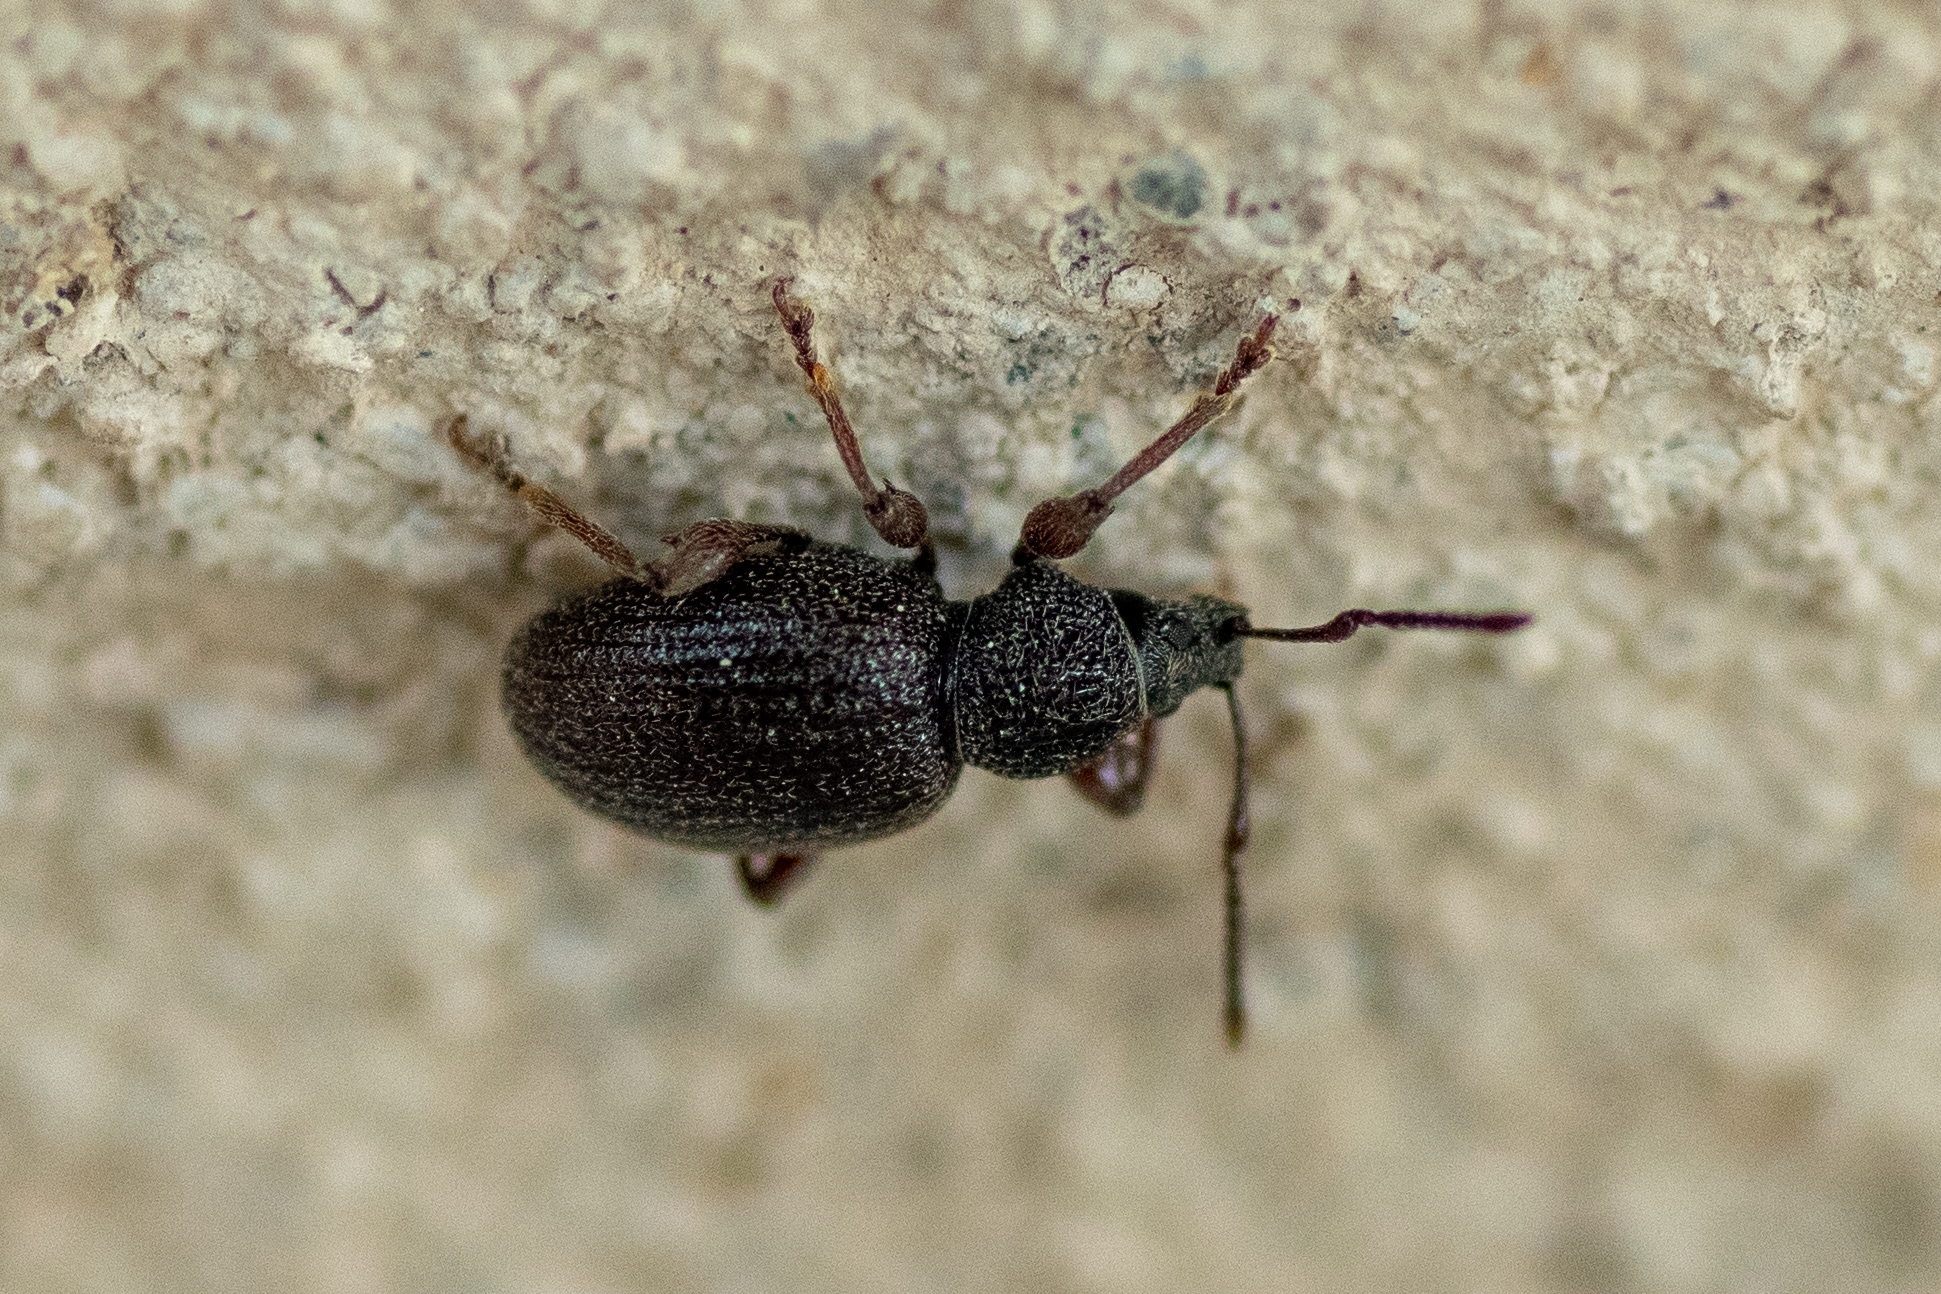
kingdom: Animalia
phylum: Arthropoda
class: Insecta
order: Coleoptera
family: Curculionidae
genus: Otiorhynchus
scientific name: Otiorhynchus ovatus
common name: Strawberry root weevil
